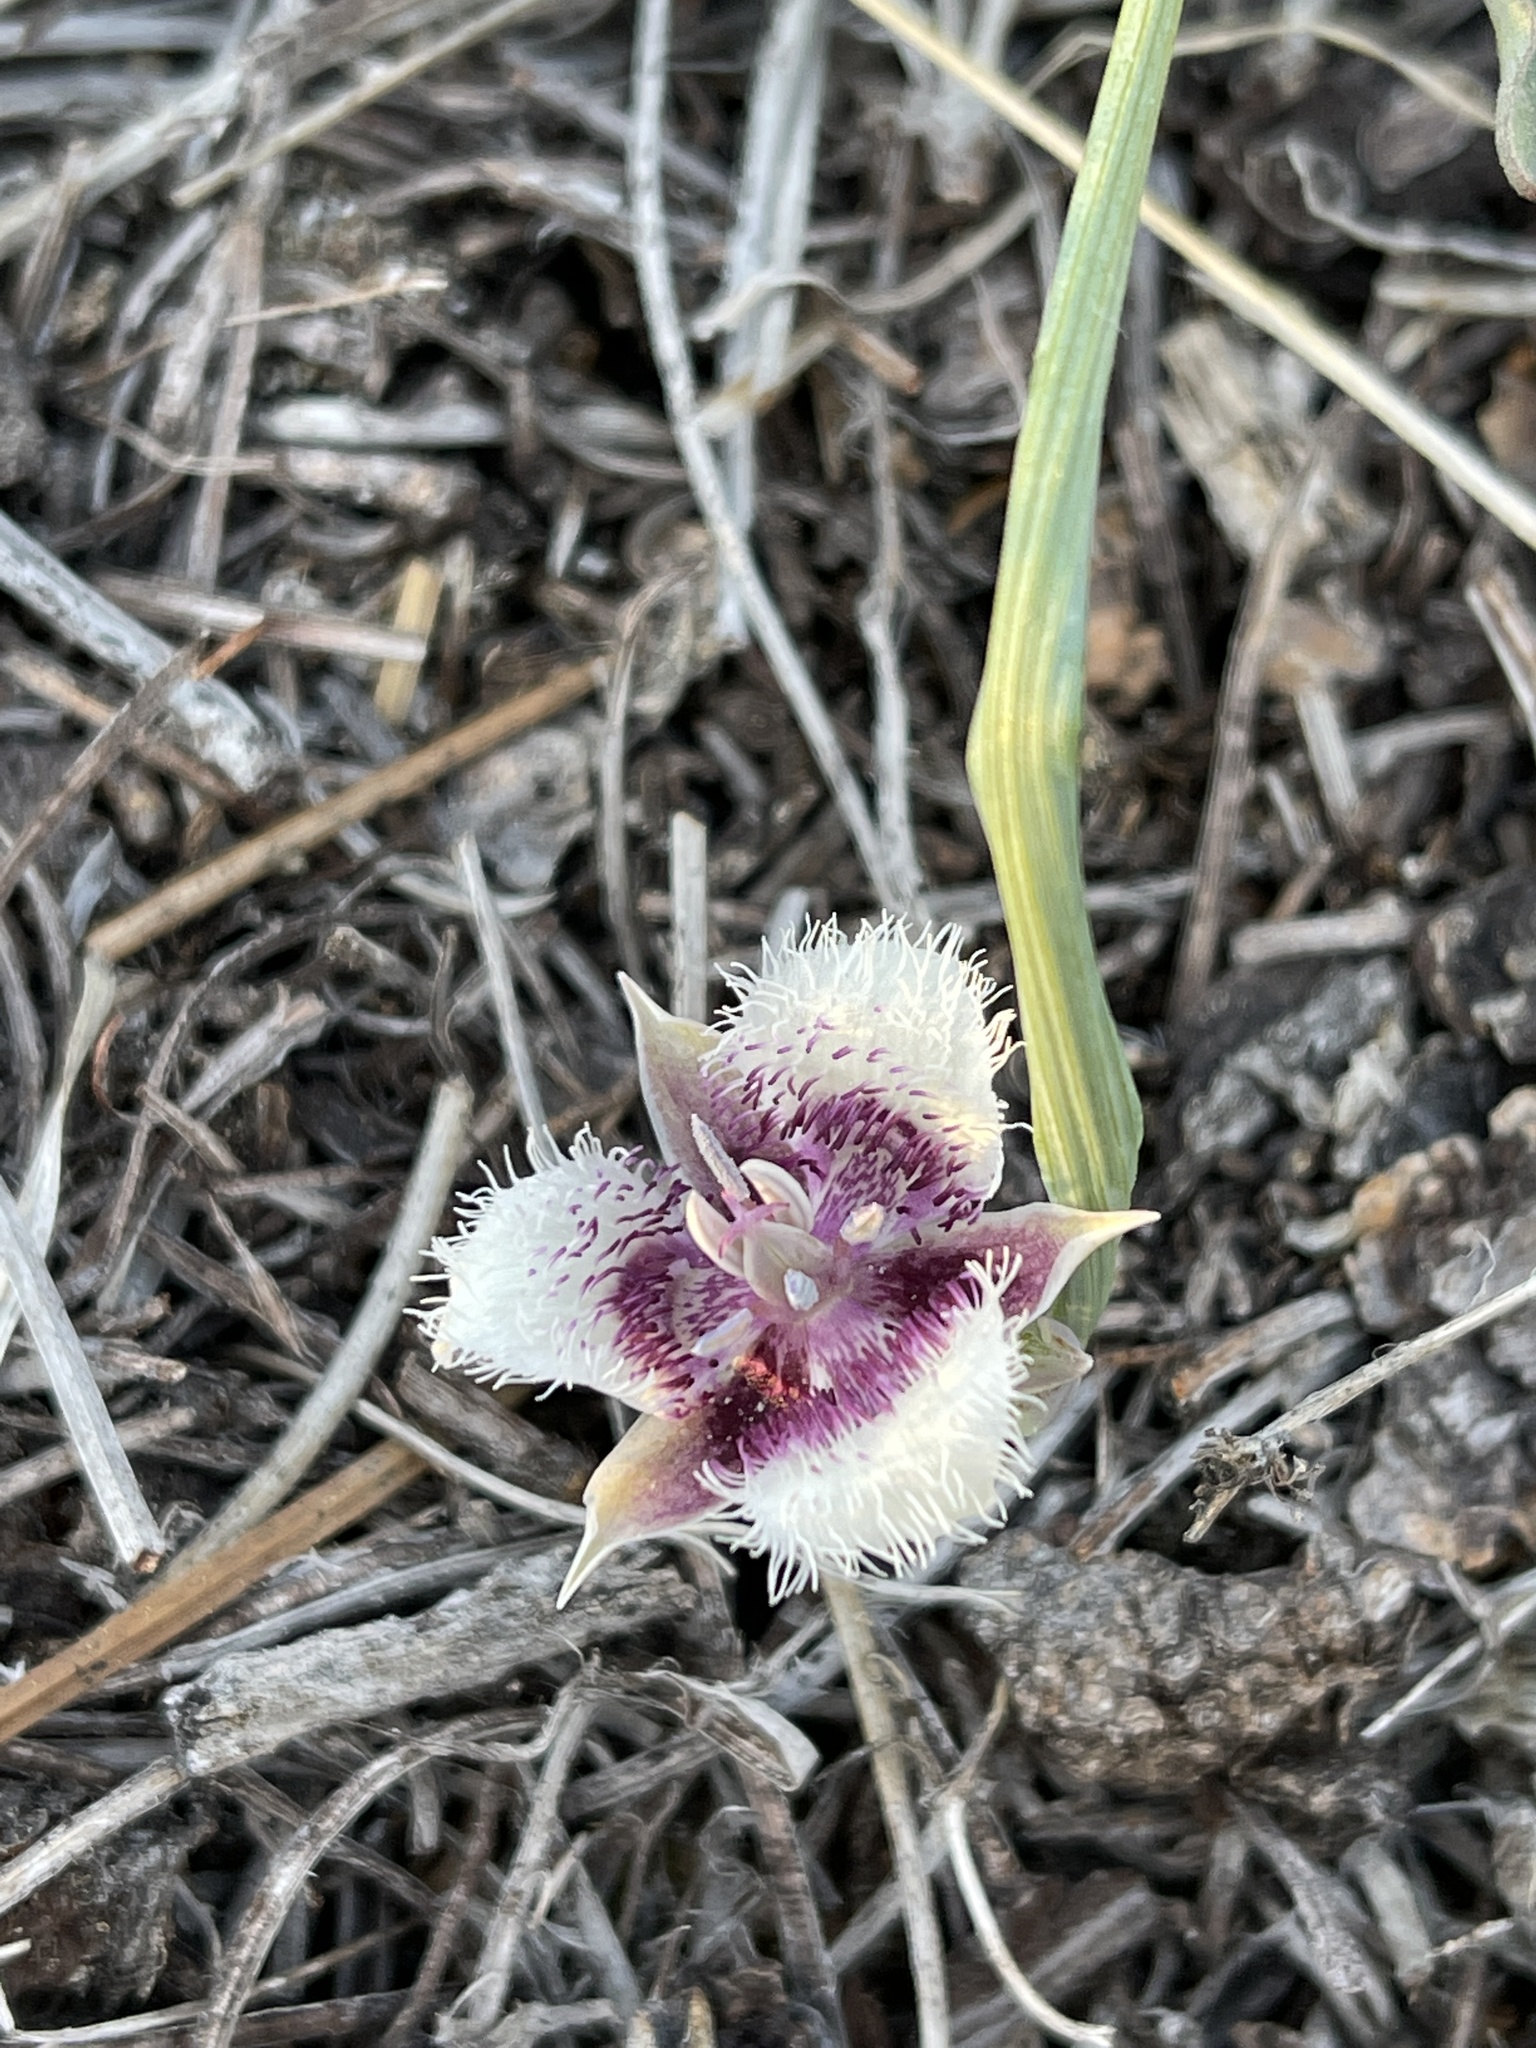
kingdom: Plantae
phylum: Tracheophyta
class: Liliopsida
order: Liliales
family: Liliaceae
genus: Calochortus
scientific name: Calochortus elegans
